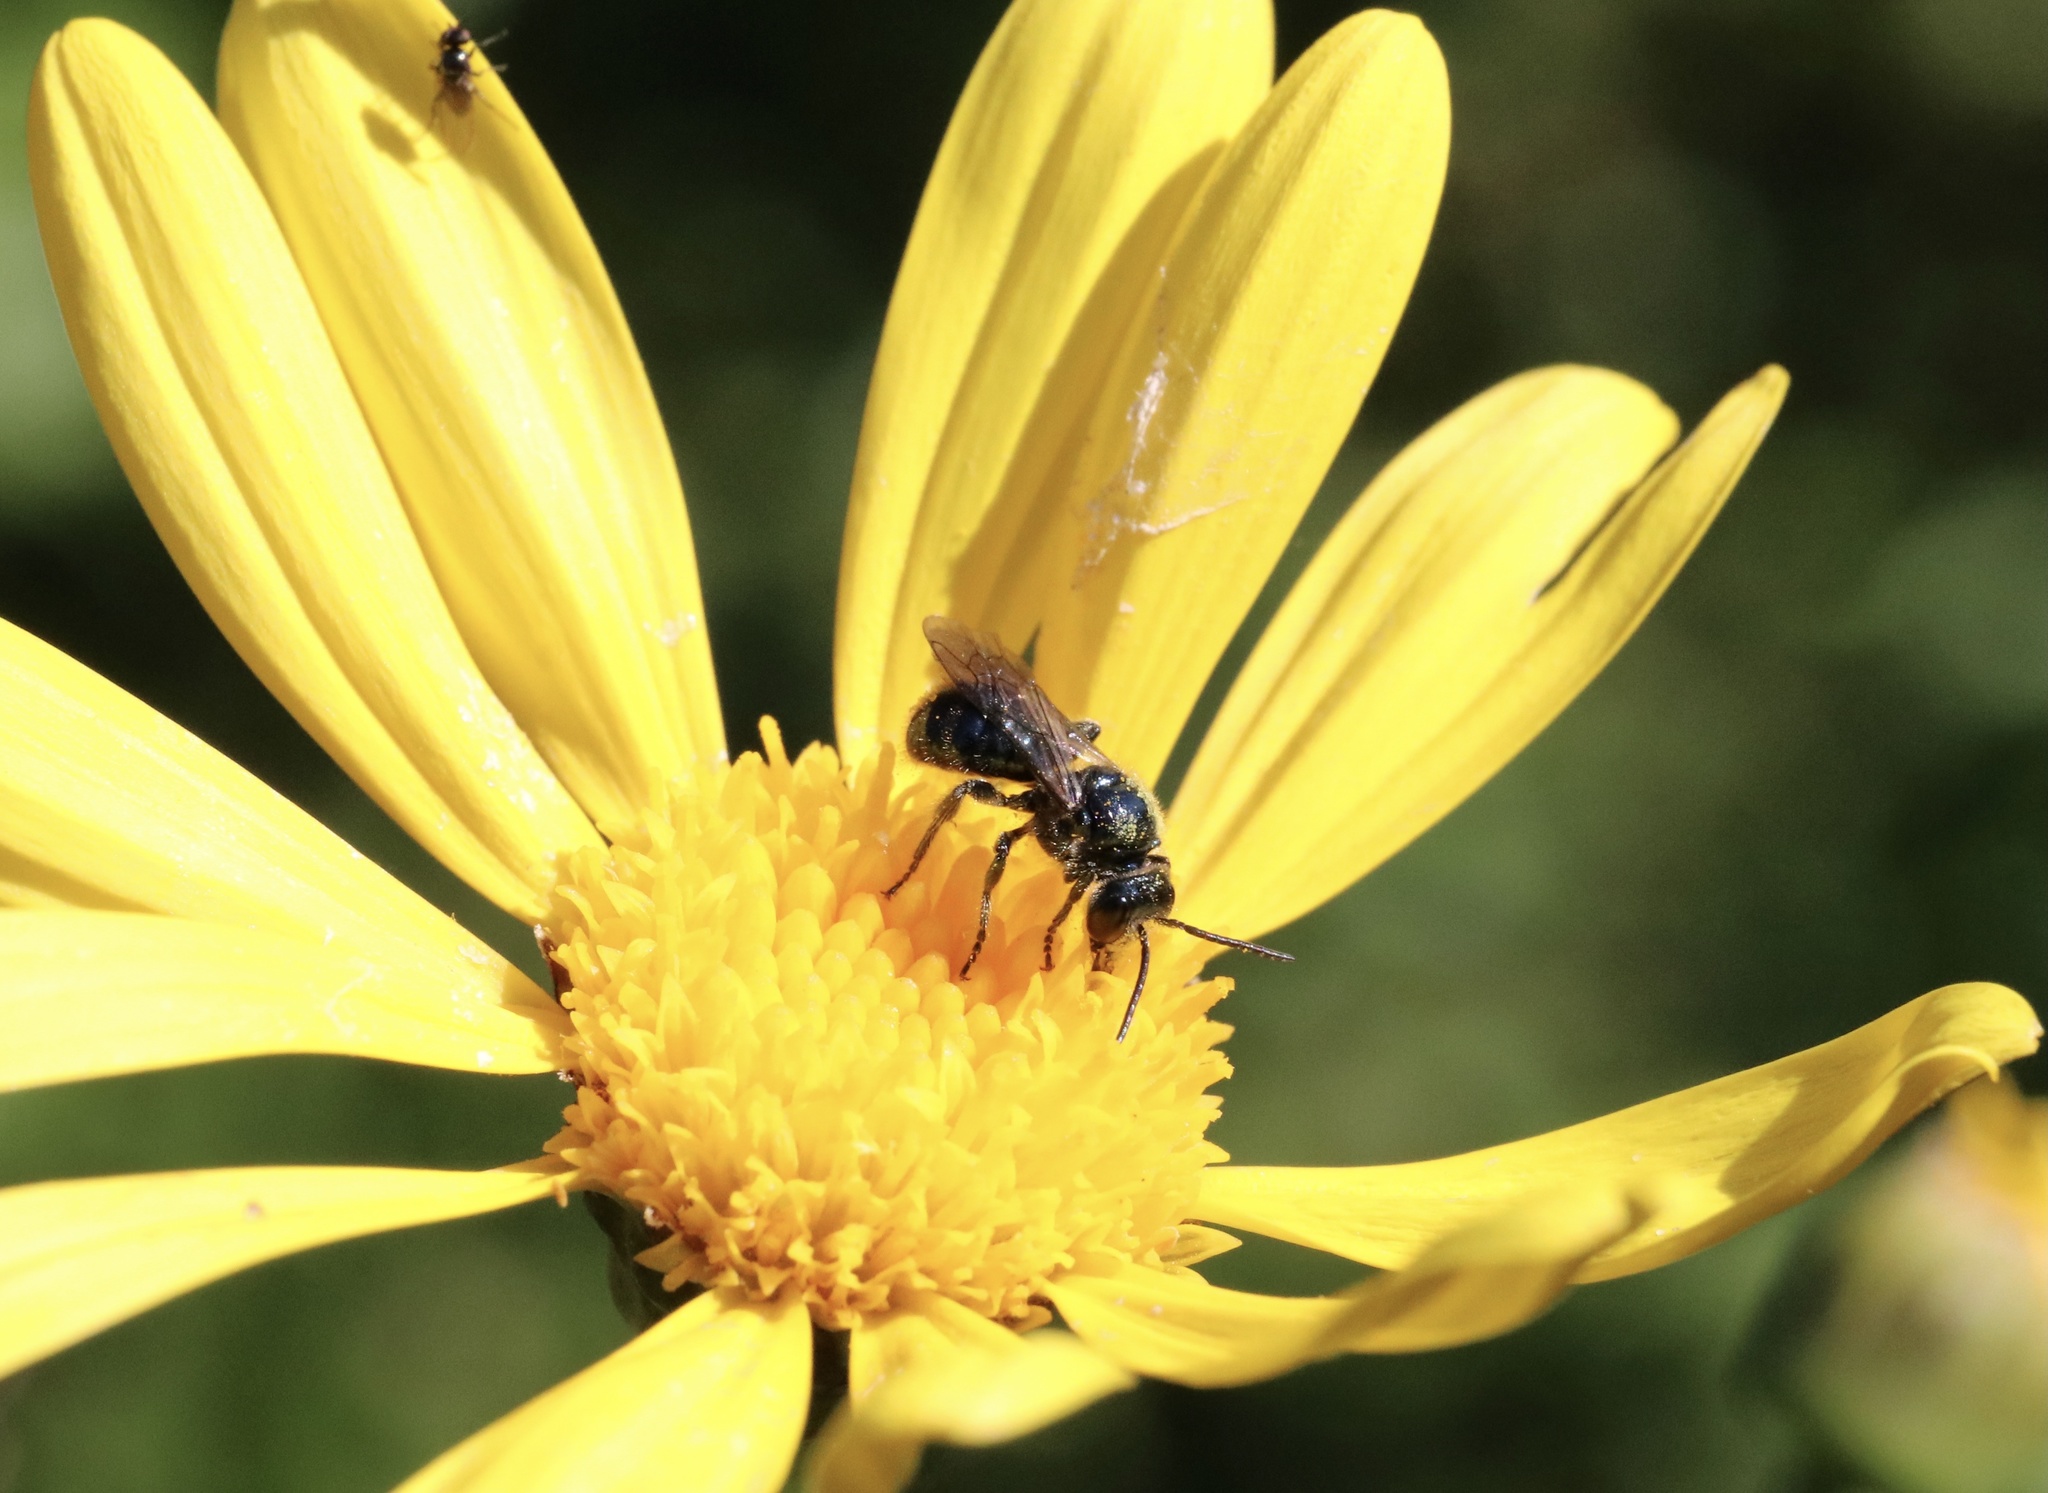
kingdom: Animalia
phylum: Arthropoda
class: Insecta
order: Hymenoptera
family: Apidae
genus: Manuelia
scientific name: Manuelia gayi
